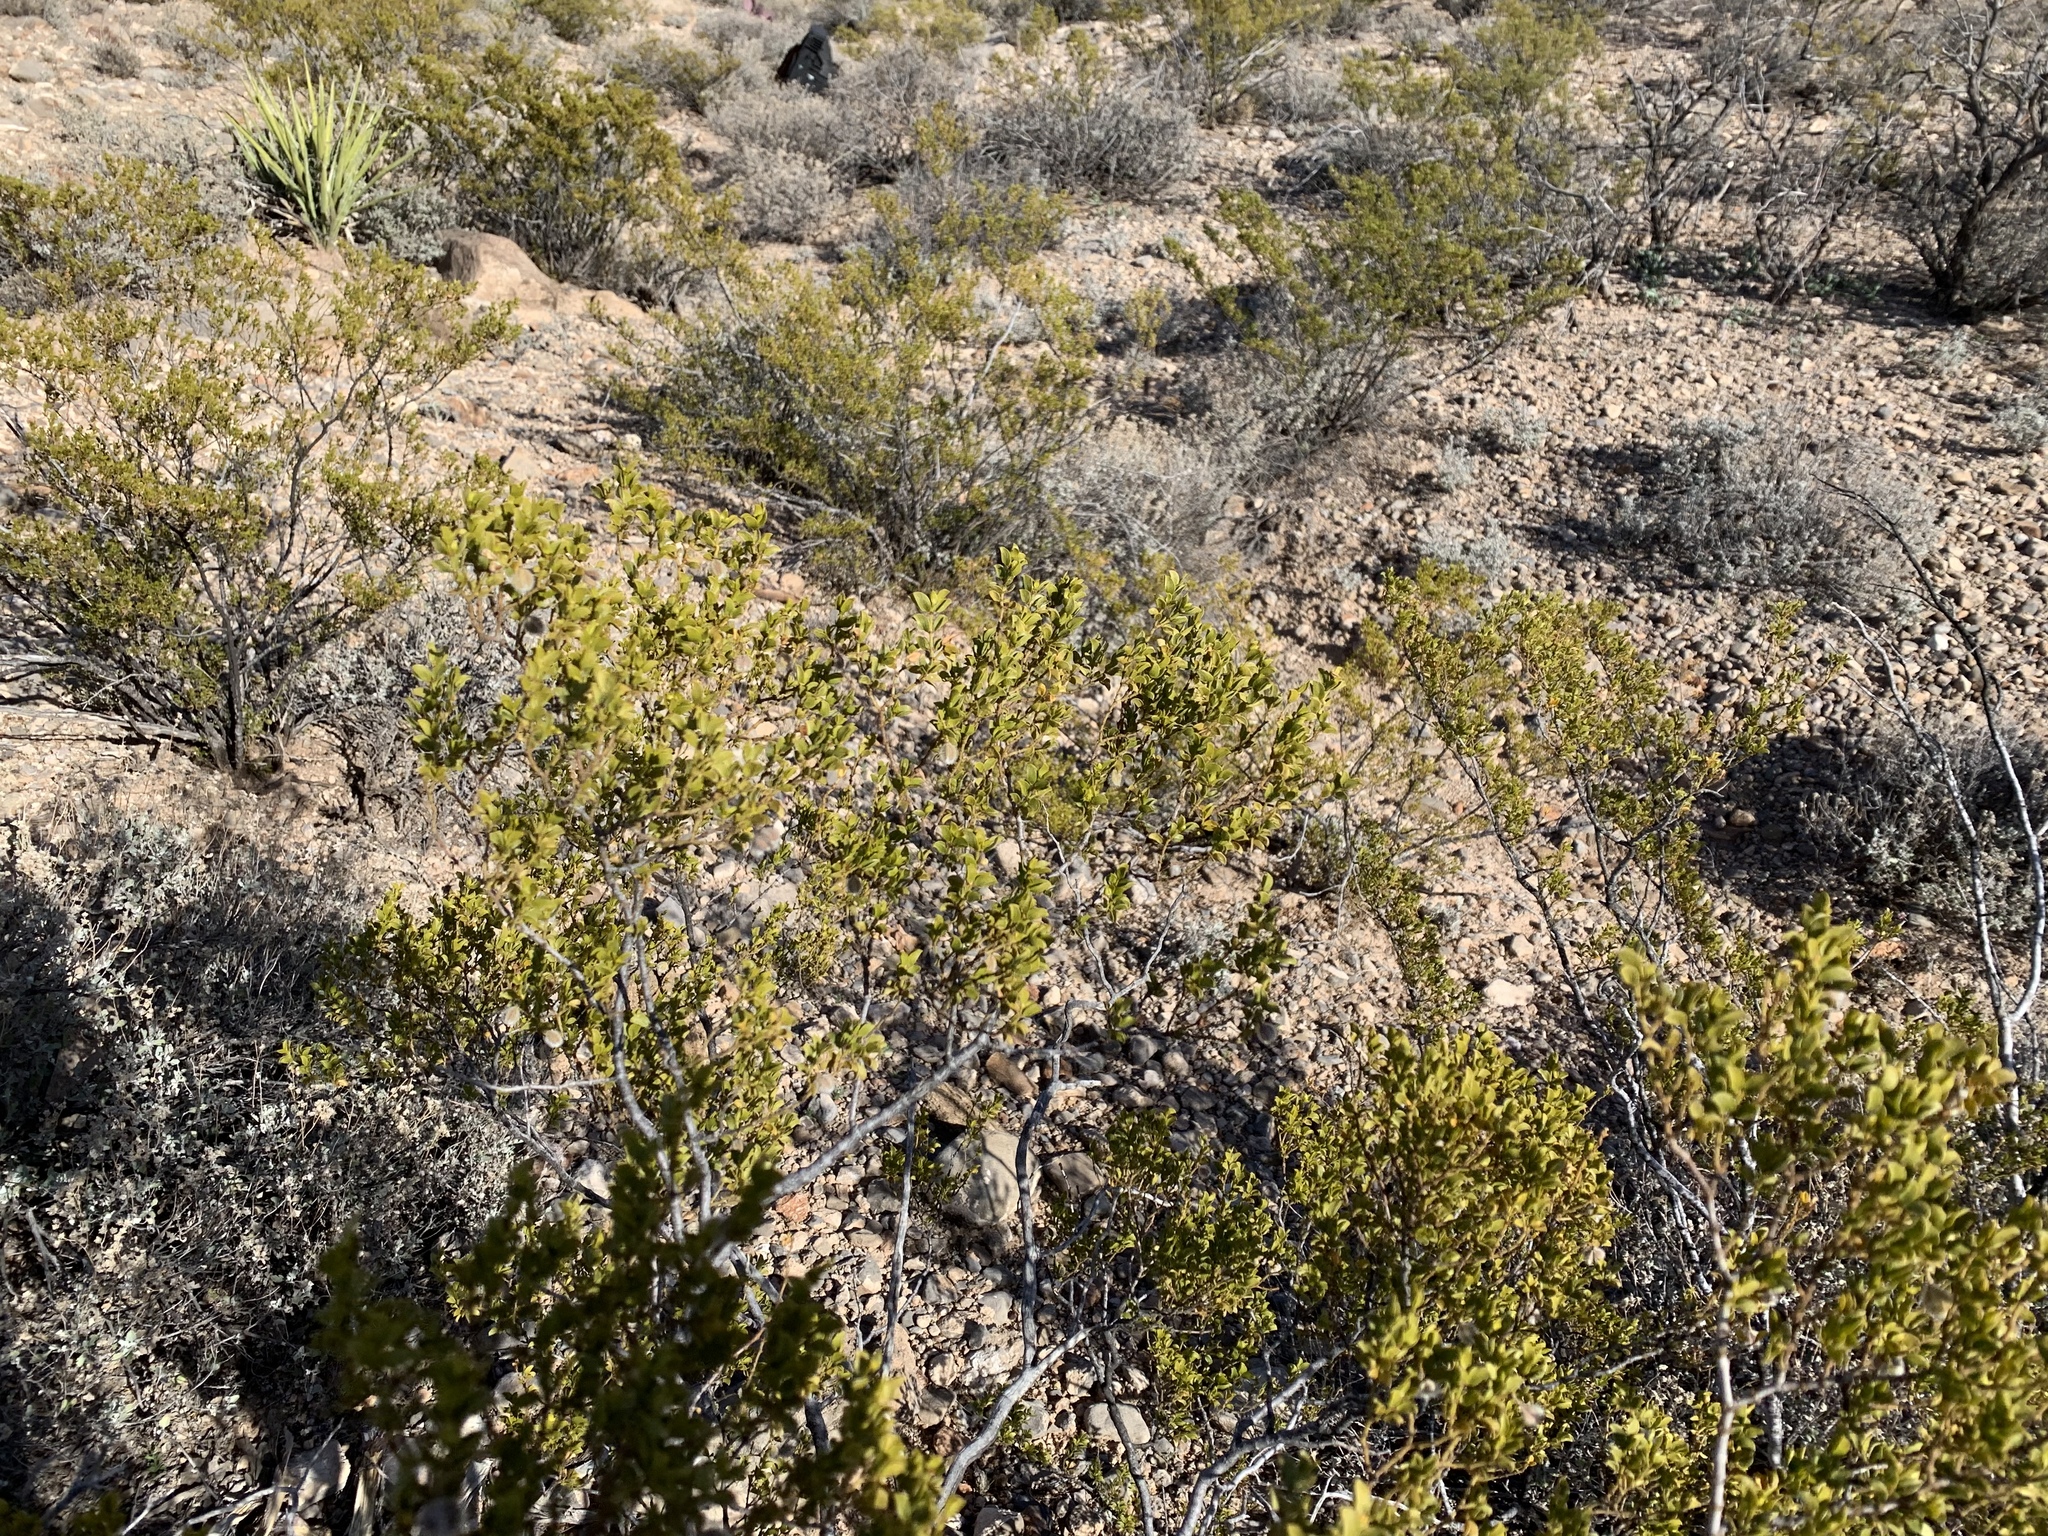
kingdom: Plantae
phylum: Tracheophyta
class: Magnoliopsida
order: Zygophyllales
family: Zygophyllaceae
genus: Larrea
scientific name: Larrea tridentata
